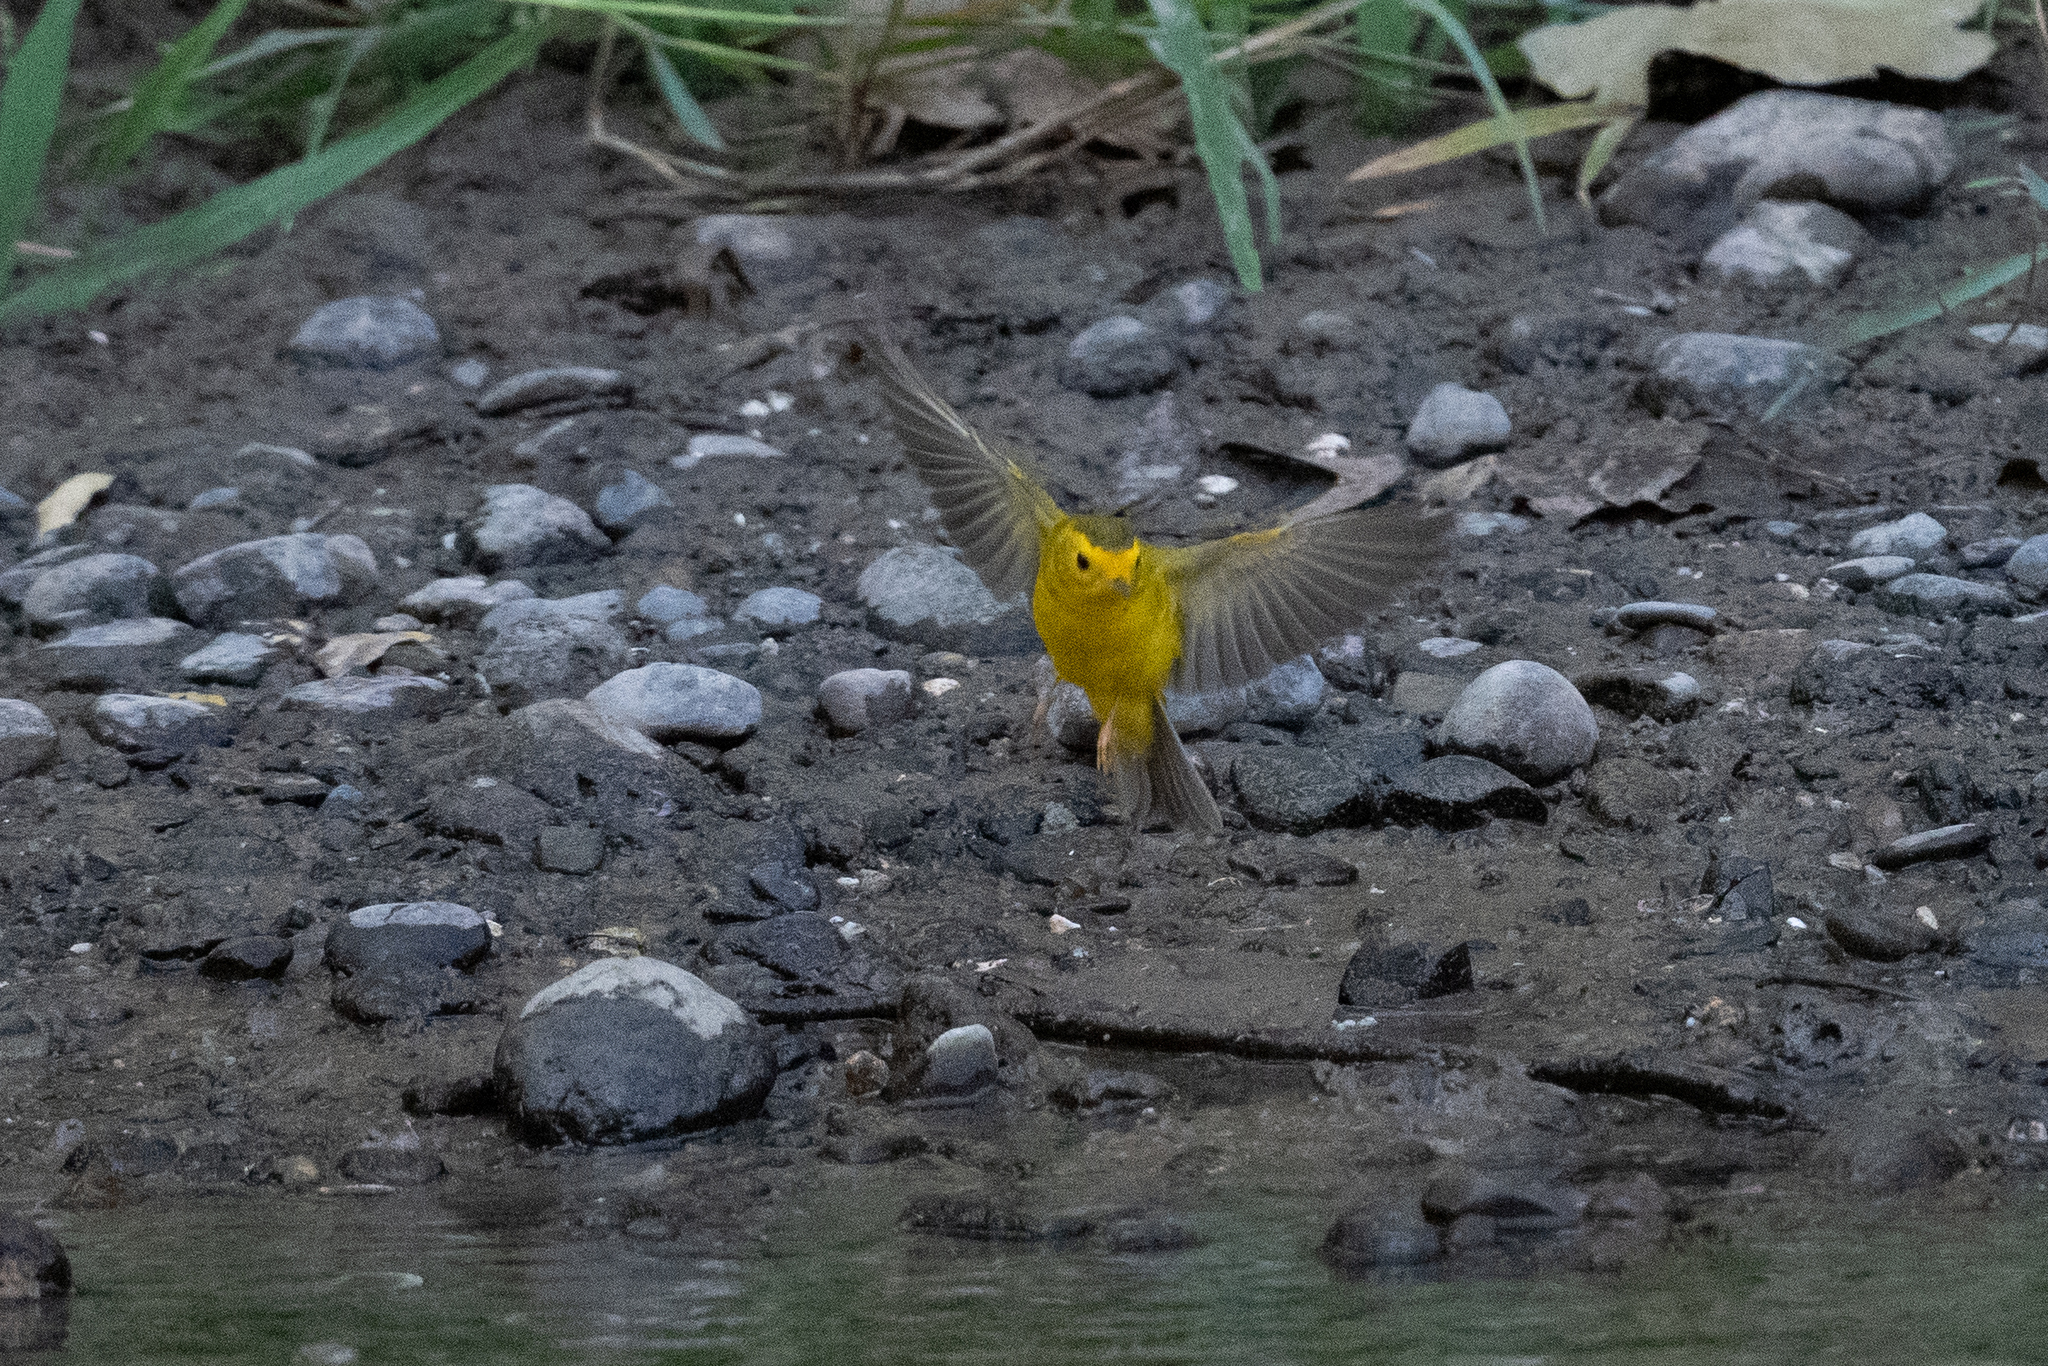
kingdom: Animalia
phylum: Chordata
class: Aves
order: Passeriformes
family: Parulidae
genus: Cardellina
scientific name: Cardellina pusilla
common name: Wilson's warbler
